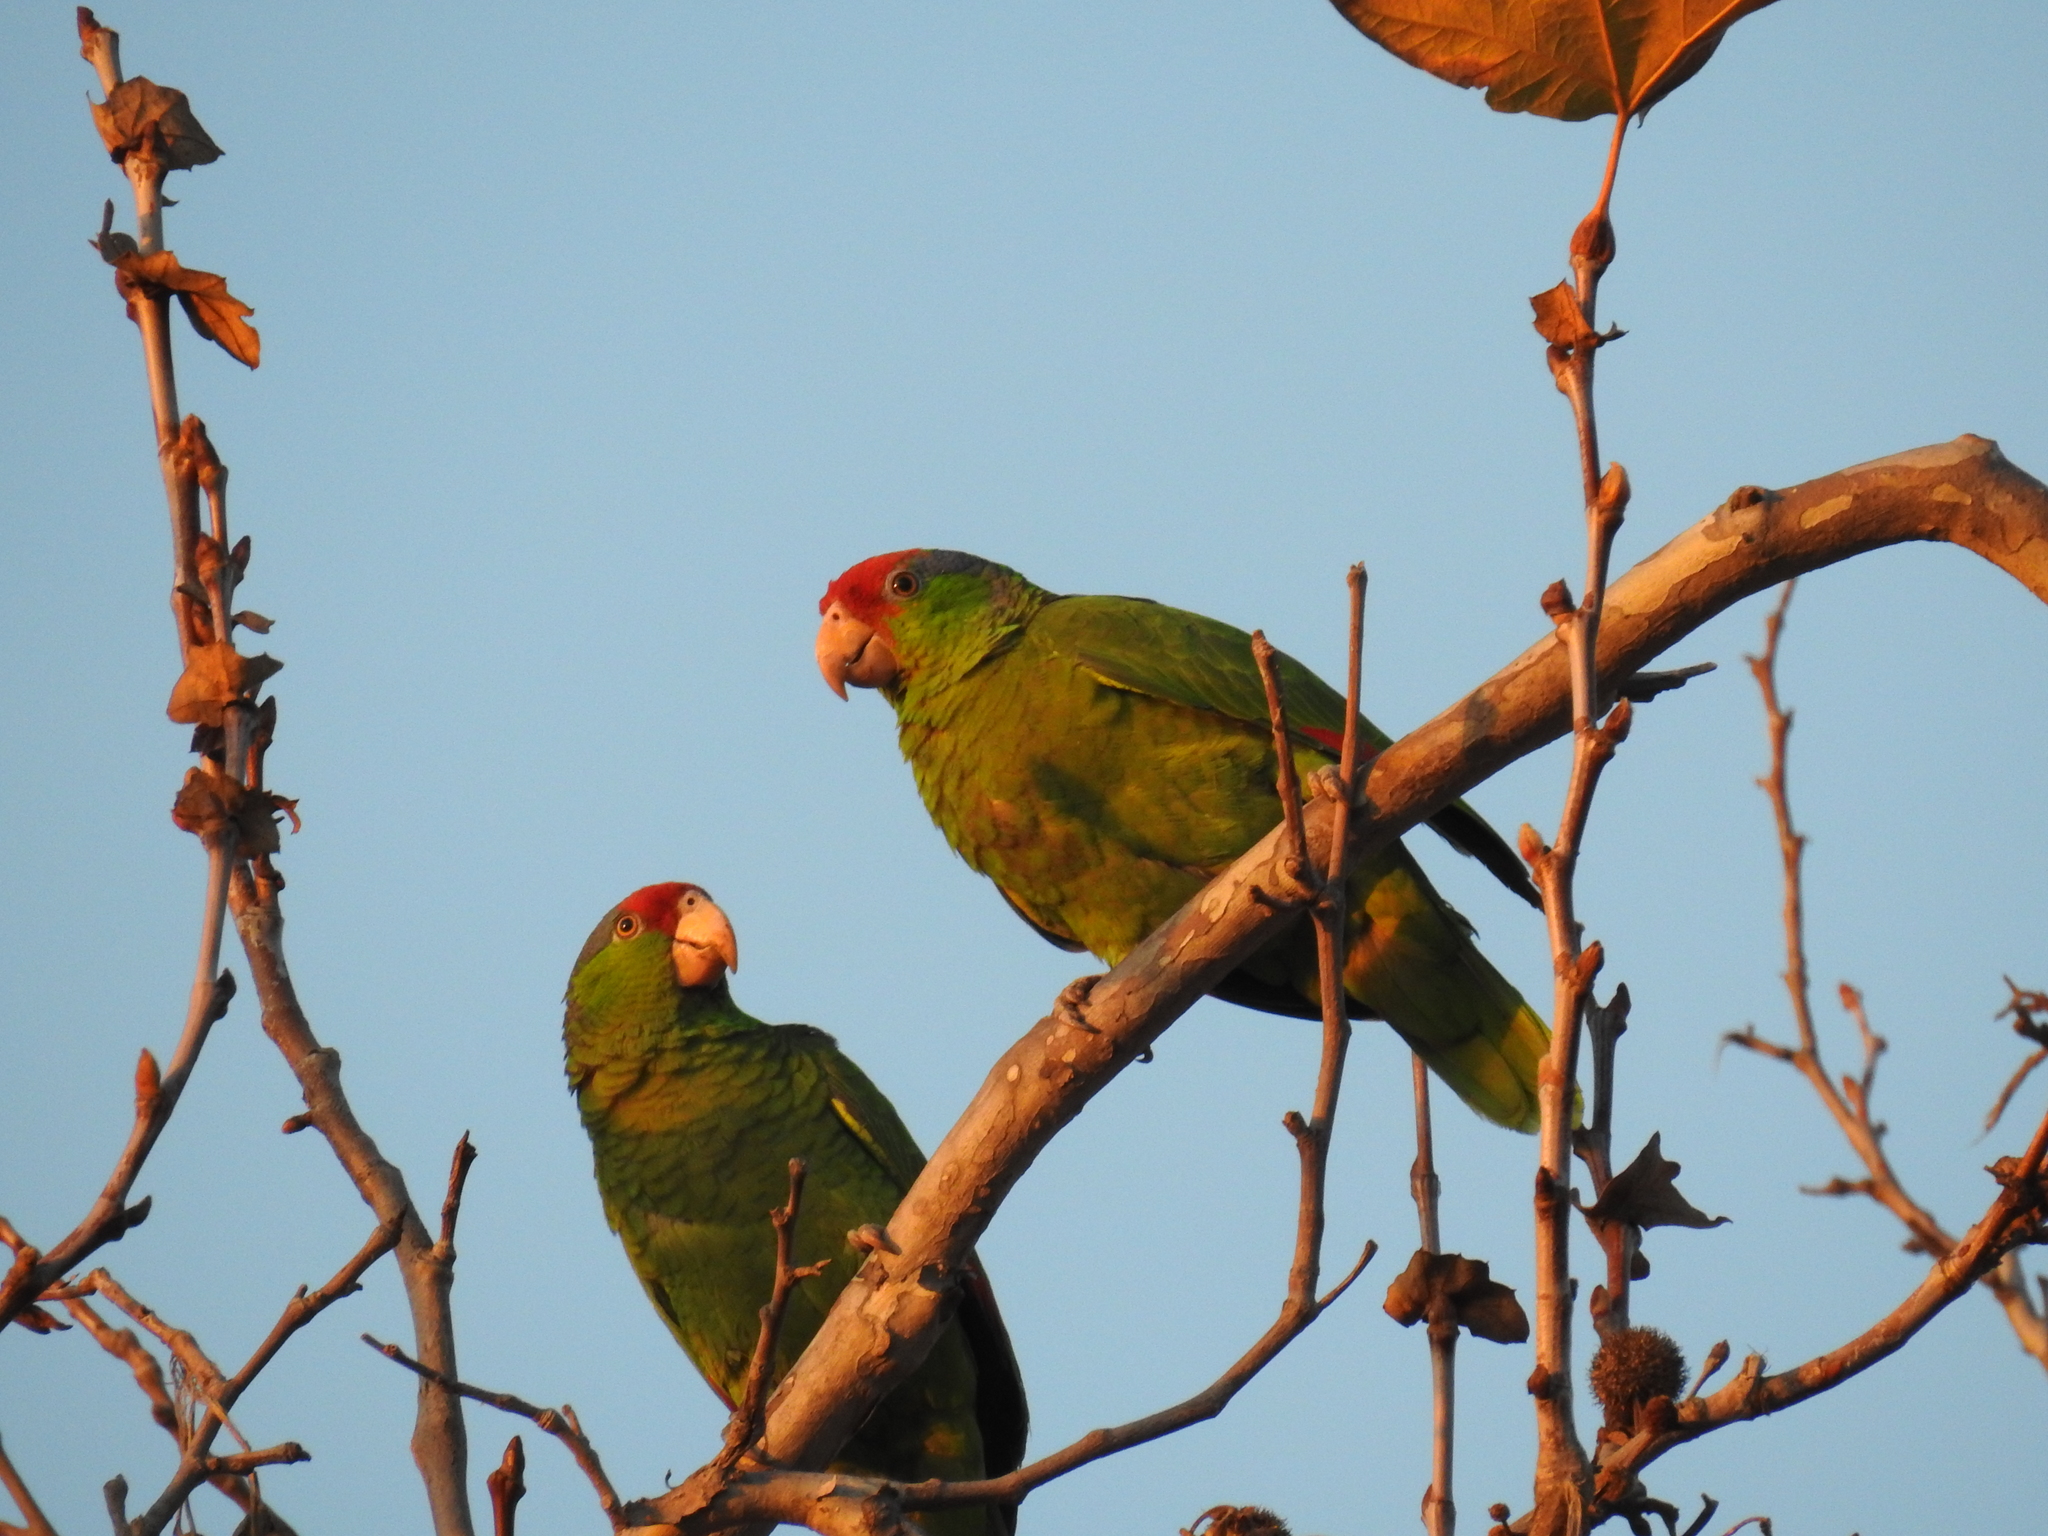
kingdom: Animalia
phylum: Chordata
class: Aves
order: Psittaciformes
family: Psittacidae
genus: Amazona
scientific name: Amazona viridigenalis
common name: Red-crowned amazon
